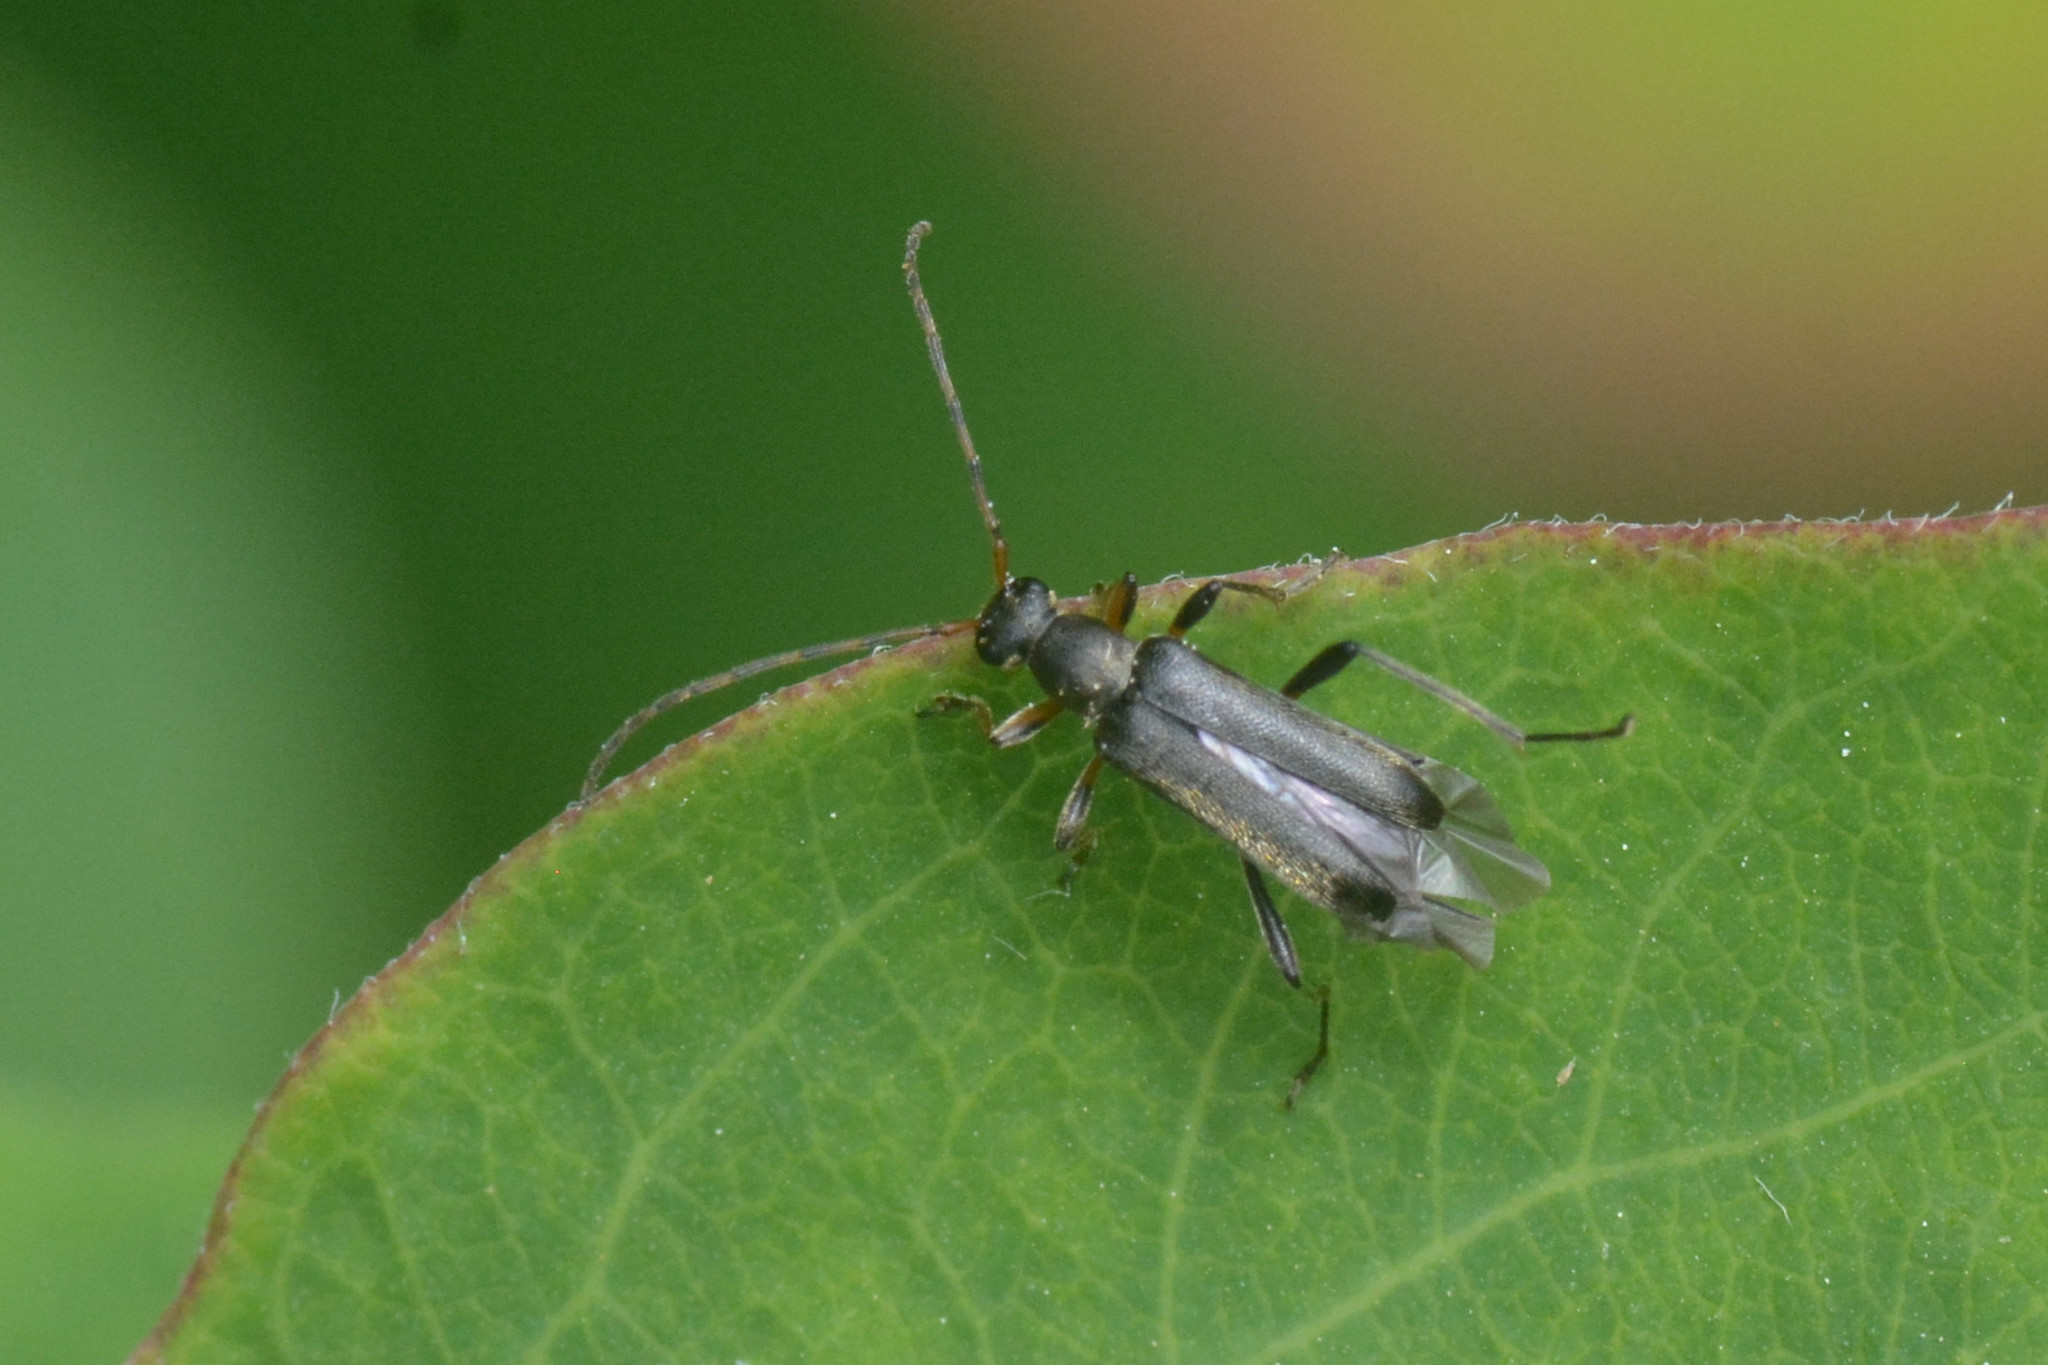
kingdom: Animalia
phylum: Arthropoda
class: Insecta
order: Coleoptera
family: Cerambycidae
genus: Grammoptera
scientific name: Grammoptera ruficornis
